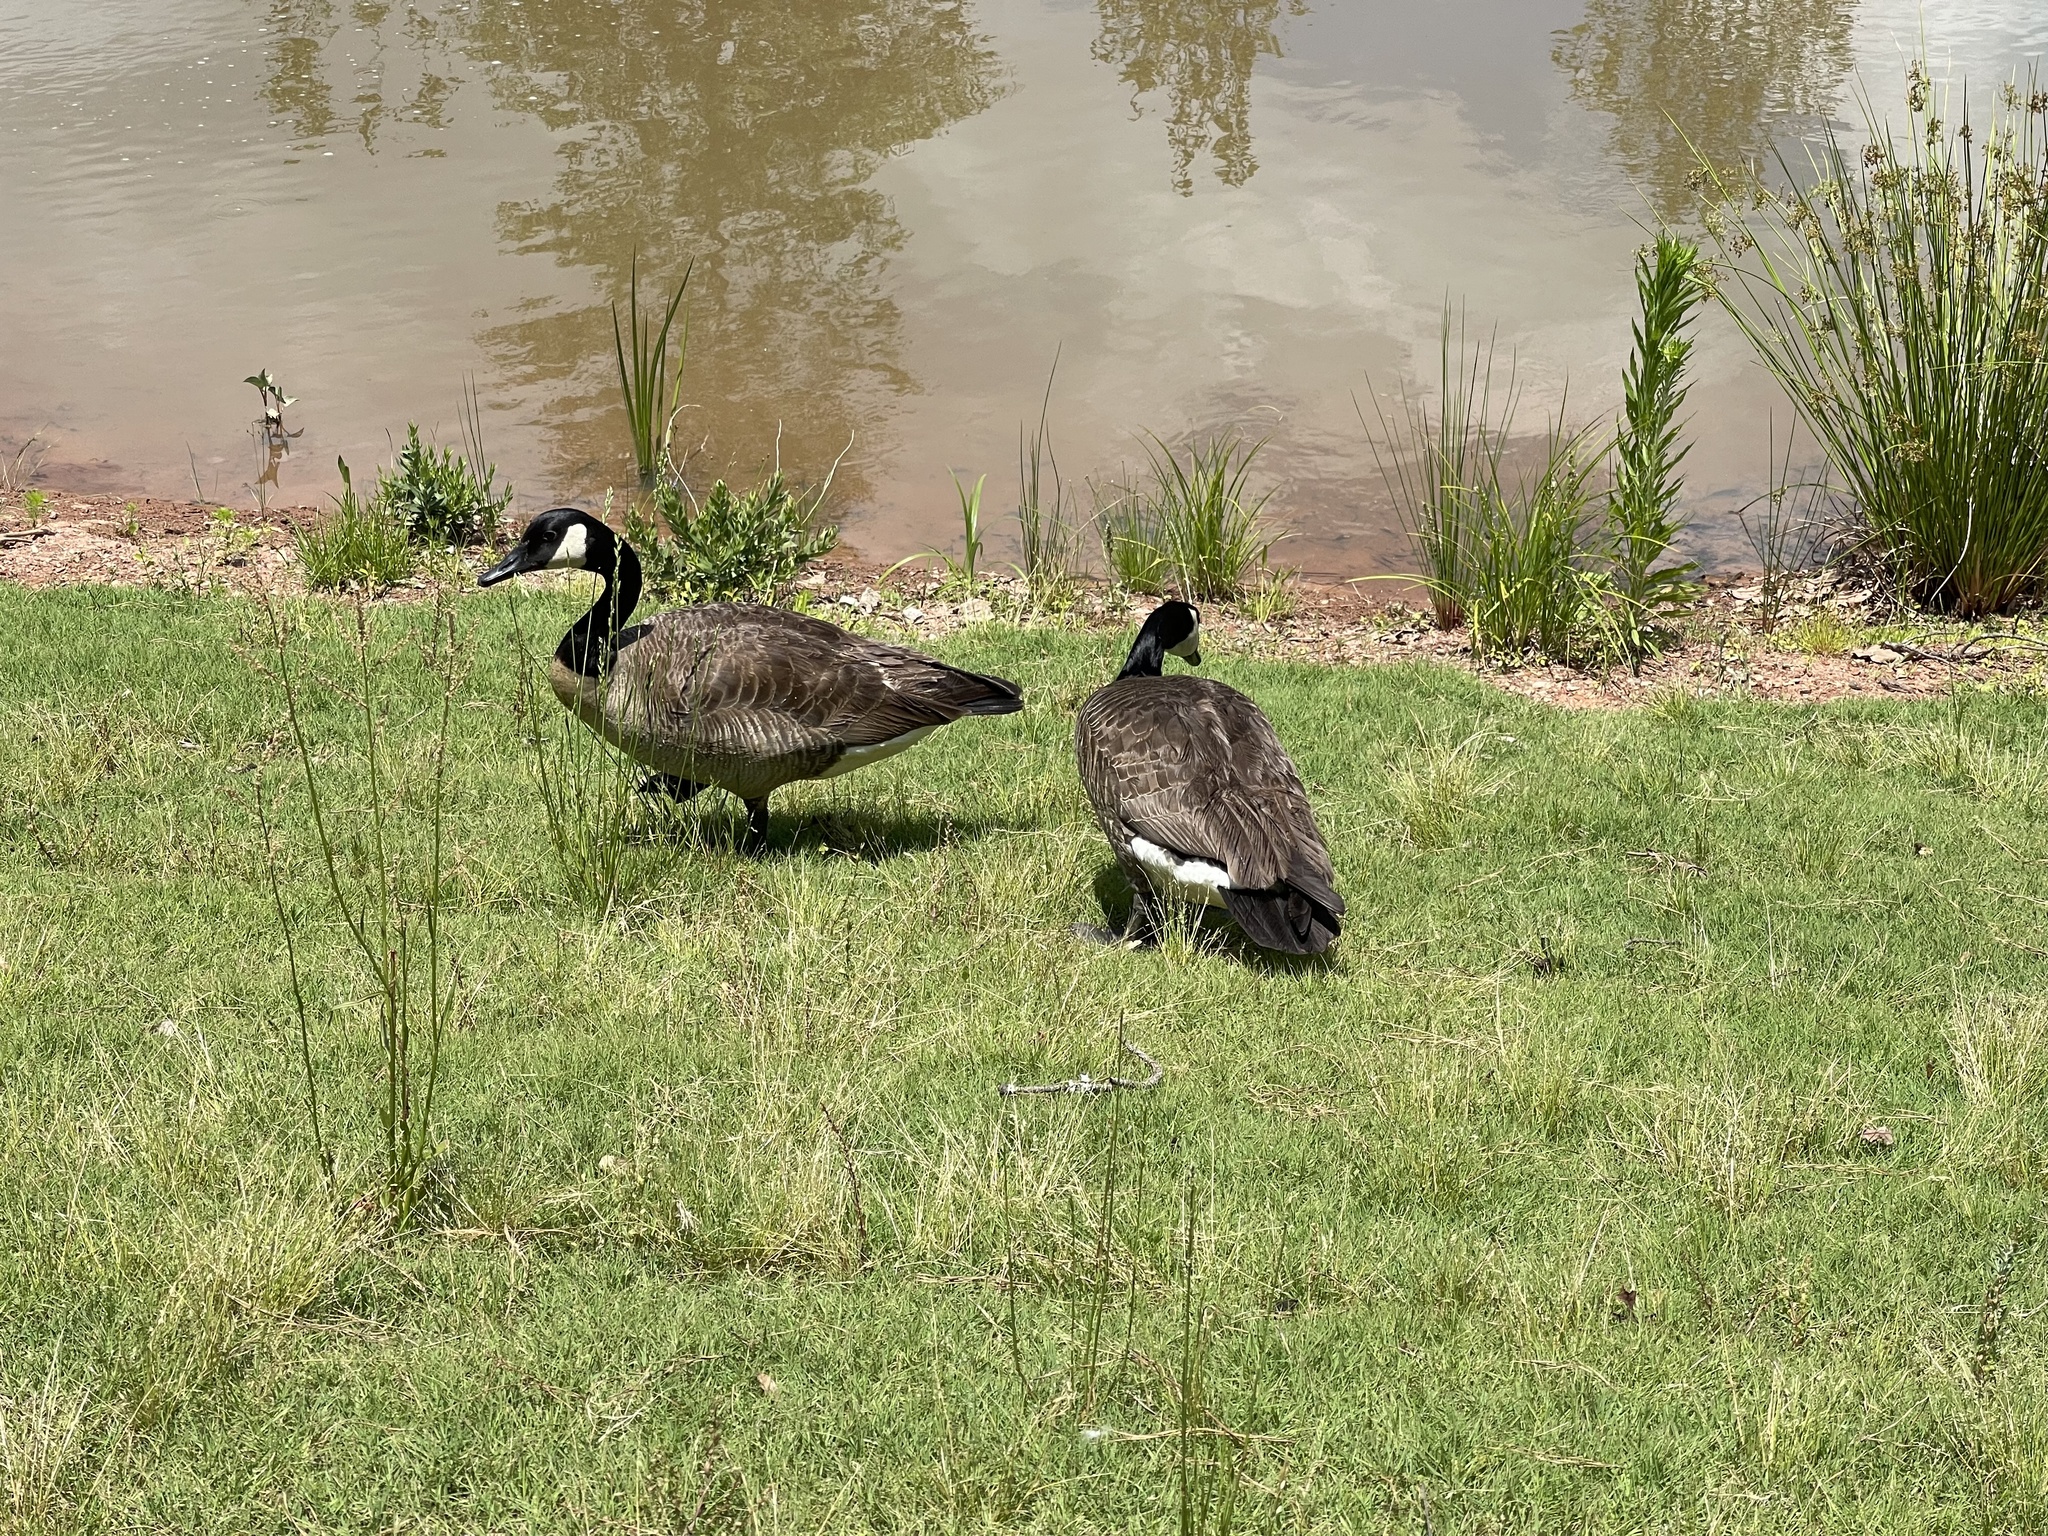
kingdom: Animalia
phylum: Chordata
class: Aves
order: Anseriformes
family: Anatidae
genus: Branta
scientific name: Branta canadensis
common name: Canada goose
